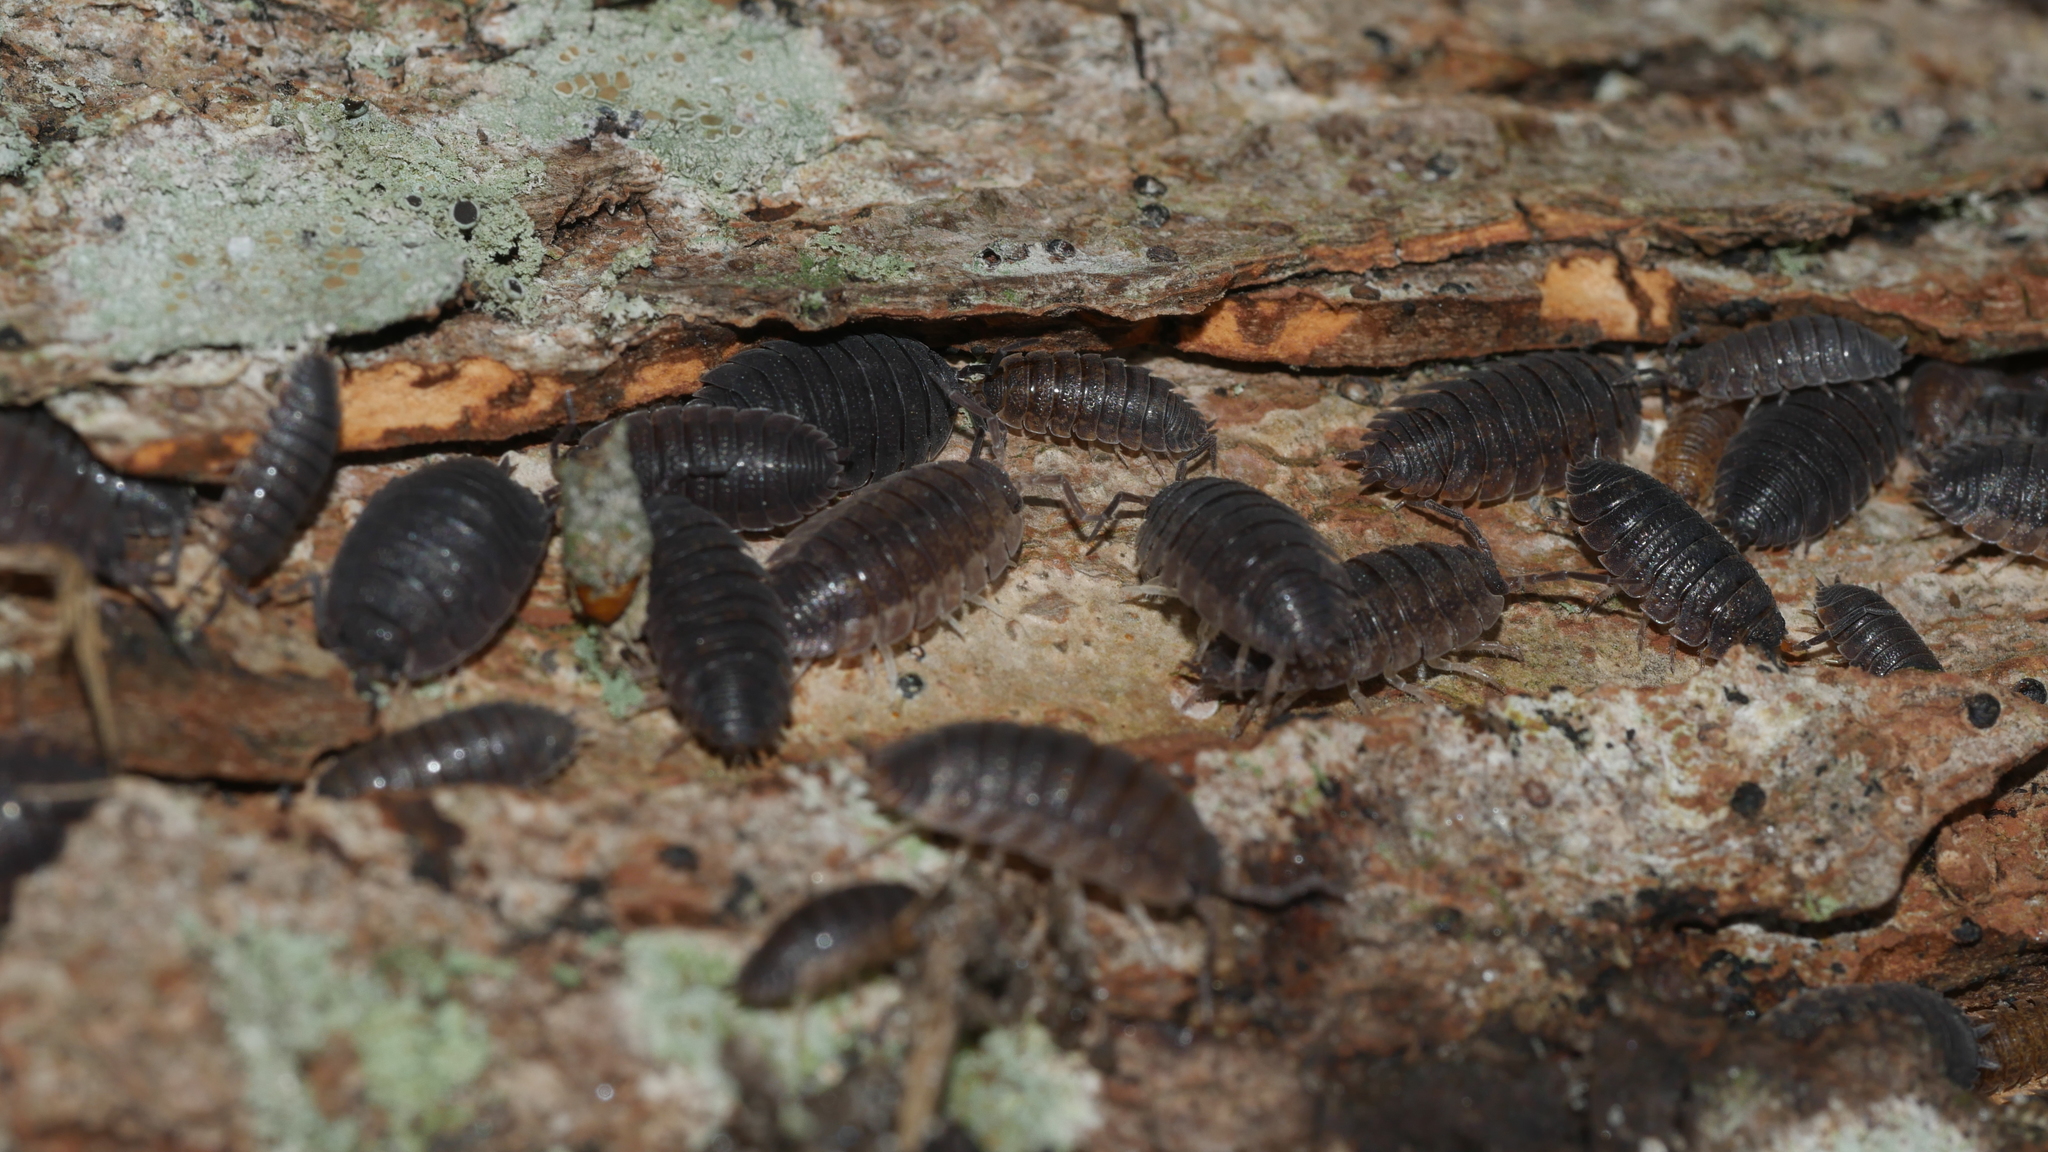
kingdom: Animalia
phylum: Arthropoda
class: Malacostraca
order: Isopoda
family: Porcellionidae
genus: Porcellio
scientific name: Porcellio scaber
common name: Common rough woodlouse
